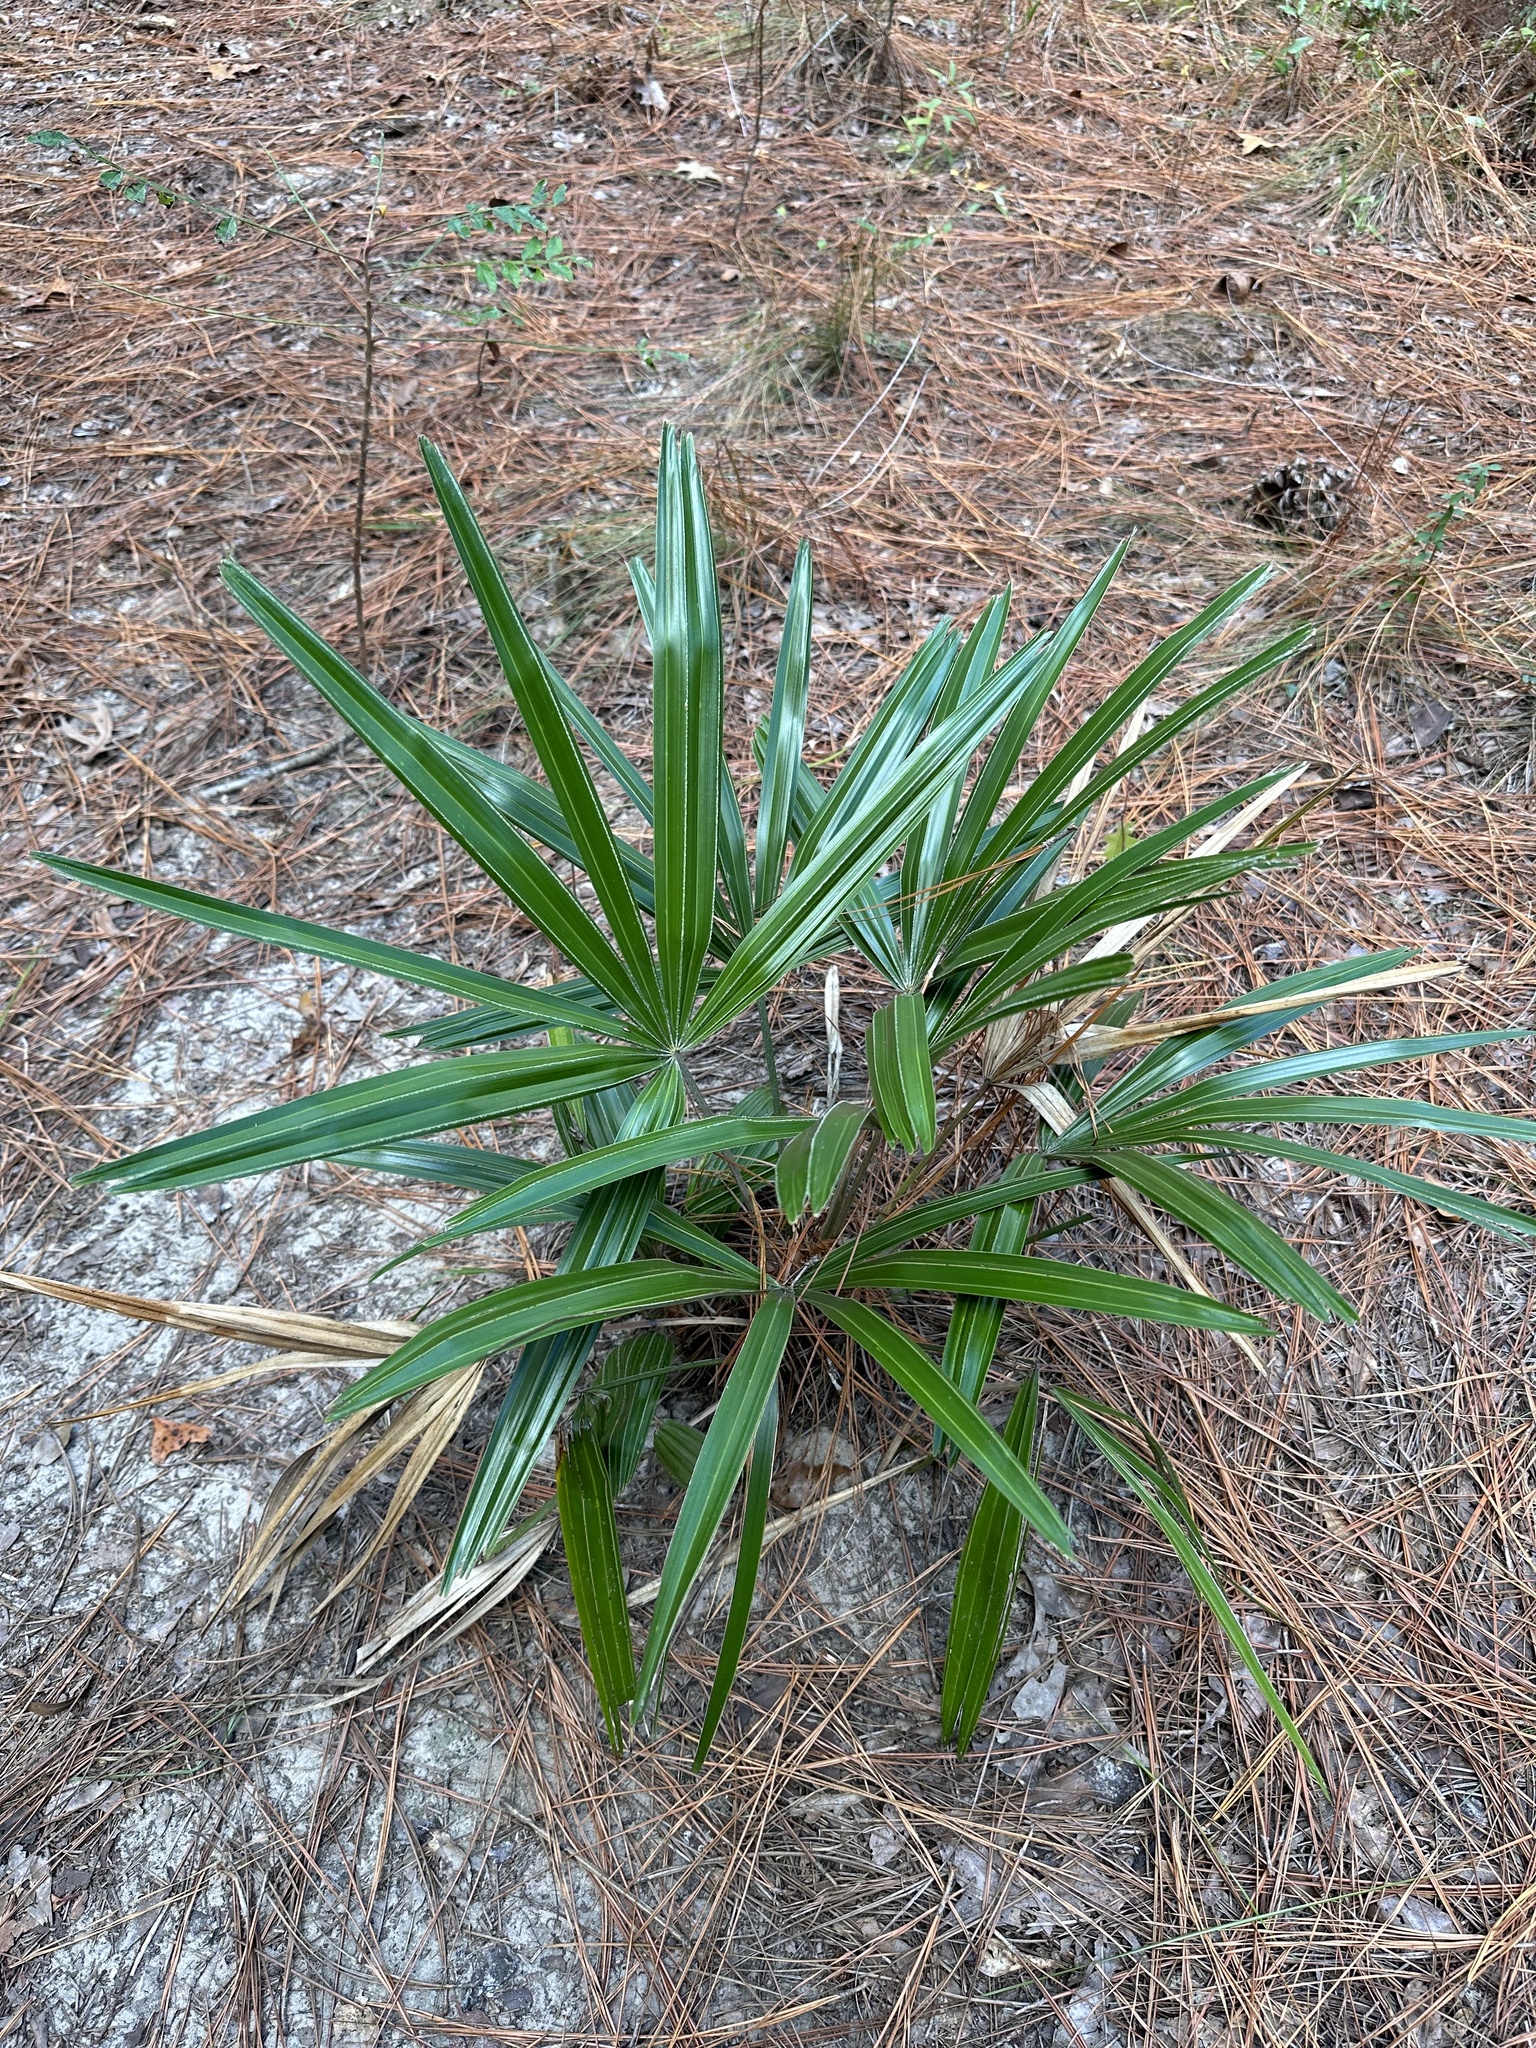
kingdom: Plantae
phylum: Tracheophyta
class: Liliopsida
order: Arecales
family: Arecaceae
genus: Rhapidophyllum
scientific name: Rhapidophyllum hystrix
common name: Porcupine palm
